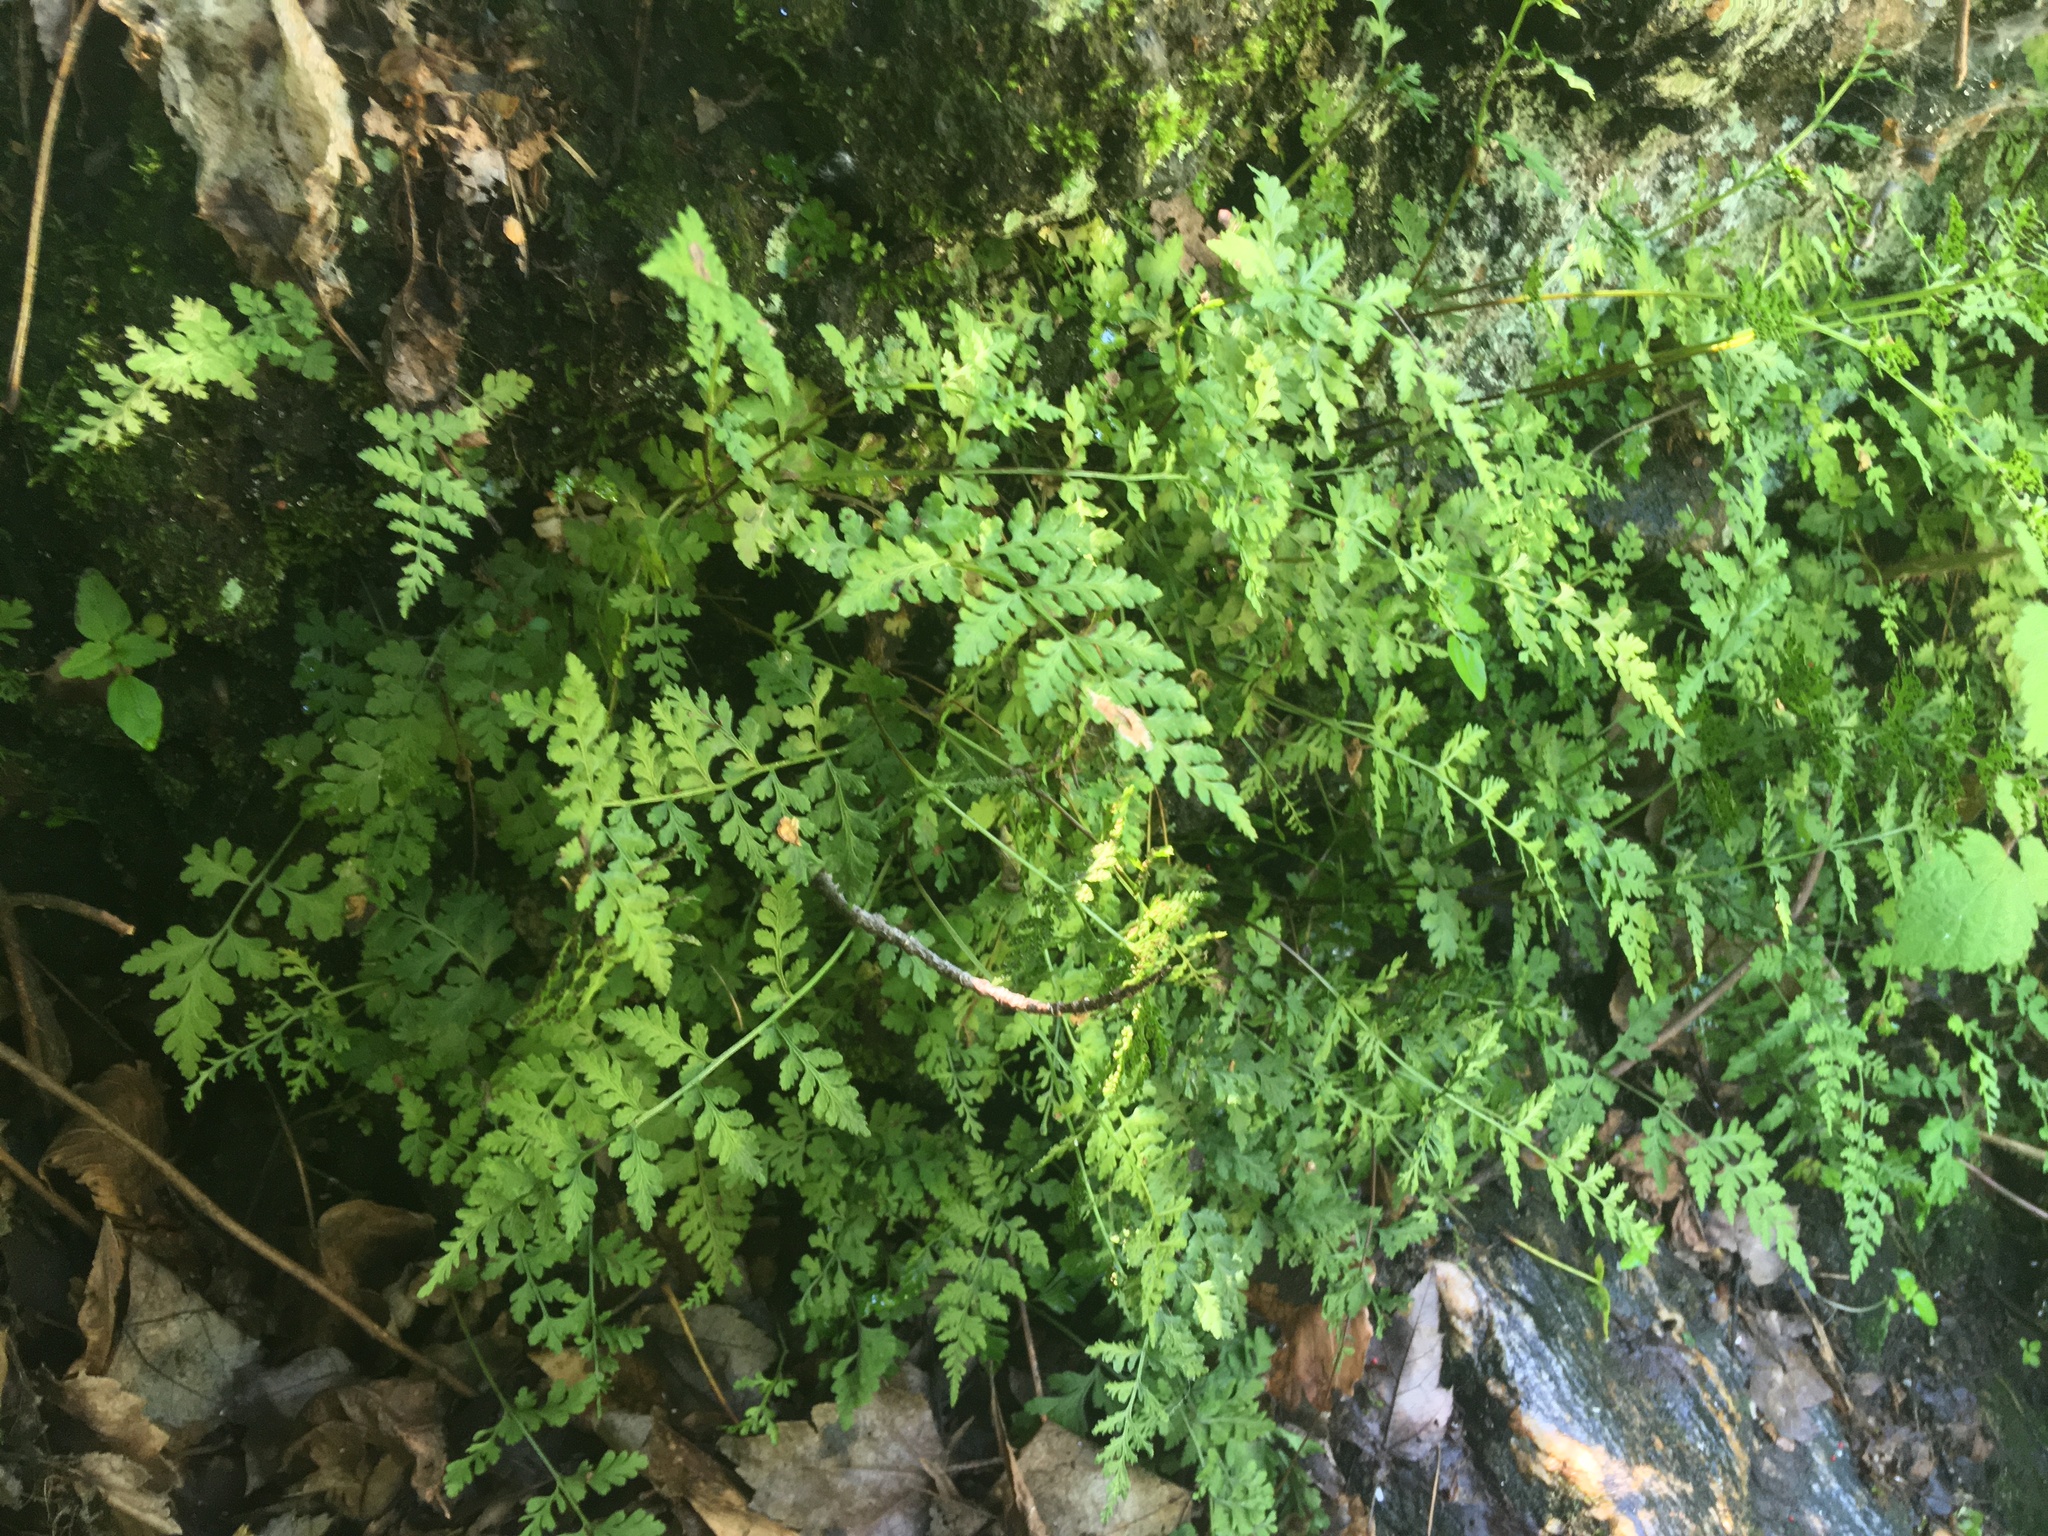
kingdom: Plantae
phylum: Tracheophyta
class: Polypodiopsida
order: Polypodiales
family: Cystopteridaceae
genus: Cystopteris
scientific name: Cystopteris fragilis
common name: Brittle bladder fern
